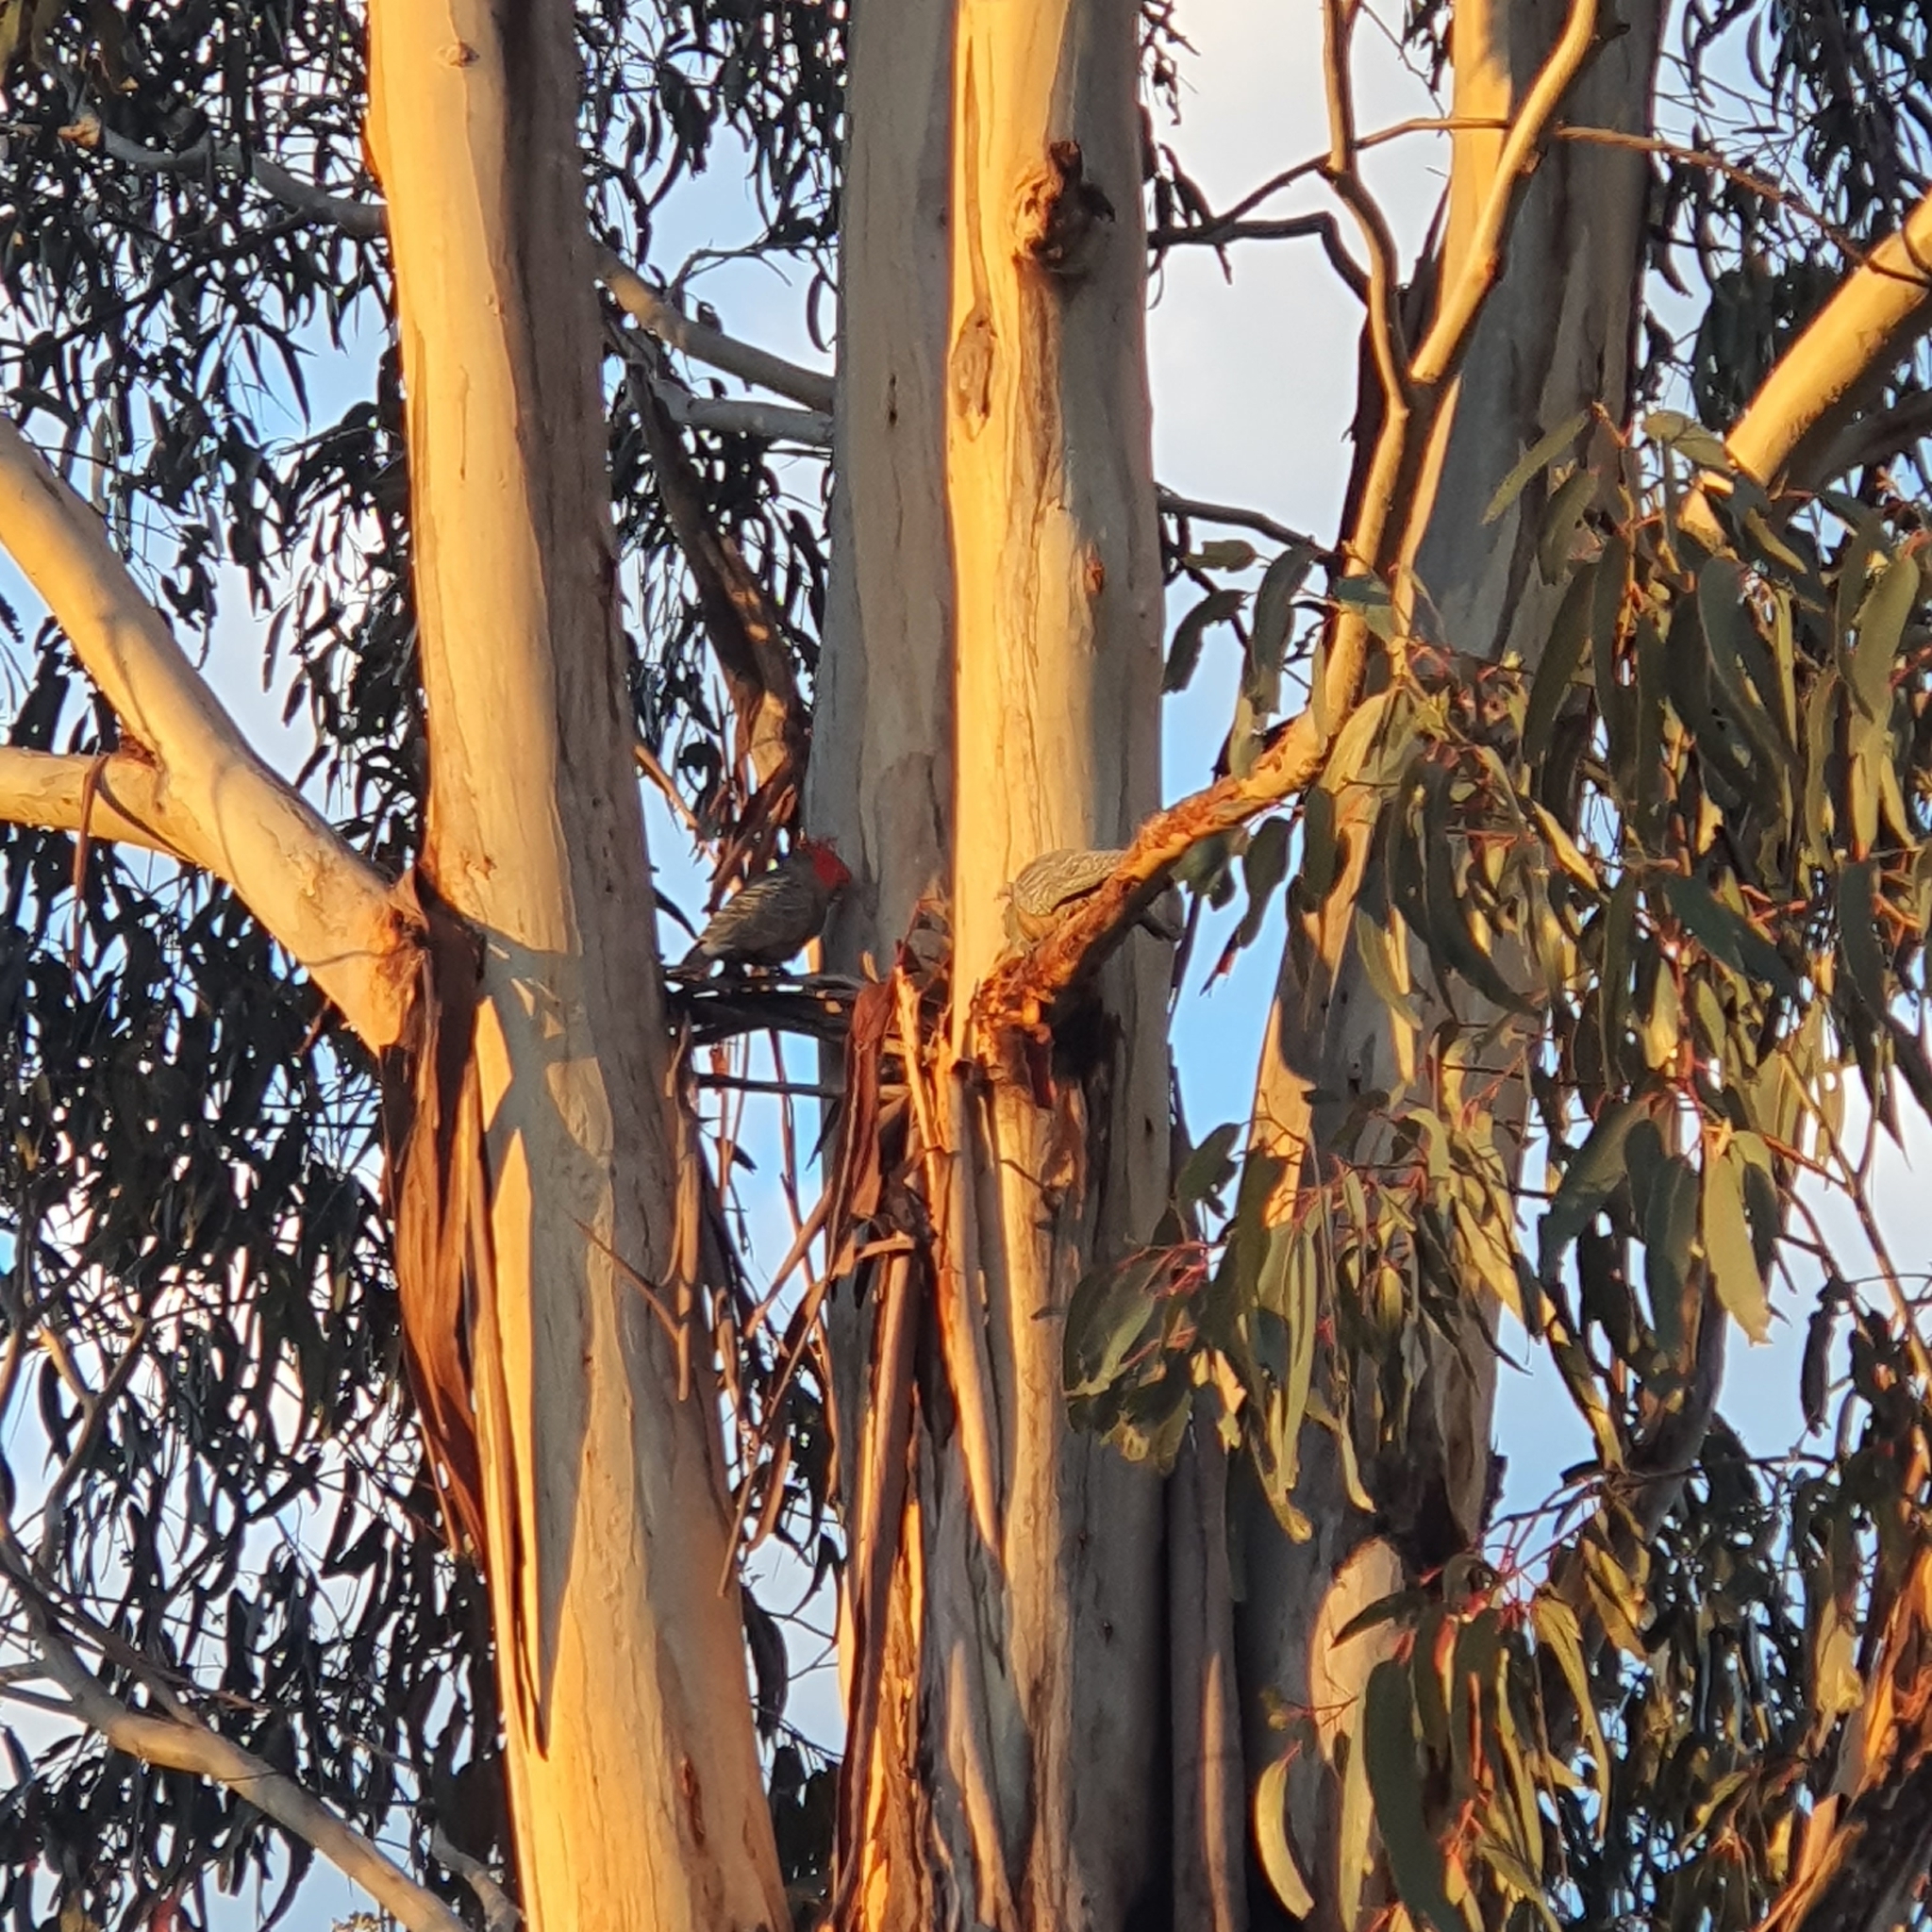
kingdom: Animalia
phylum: Chordata
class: Aves
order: Psittaciformes
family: Psittacidae
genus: Callocephalon
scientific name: Callocephalon fimbriatum
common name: Gang-gang cockatoo
